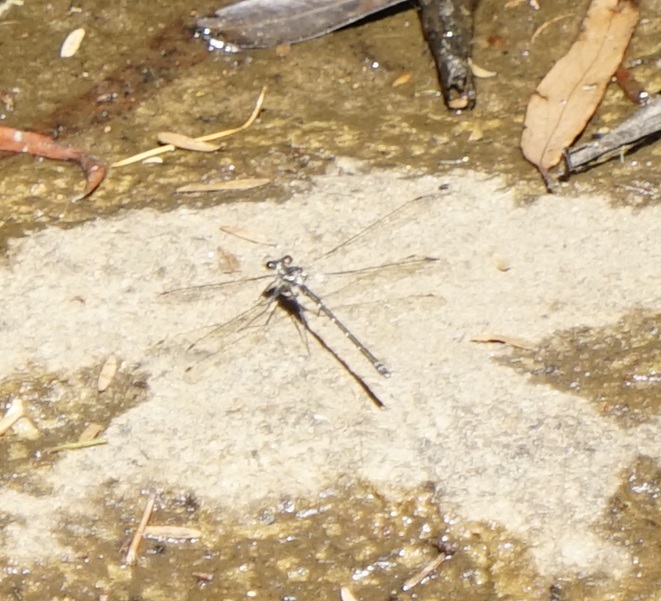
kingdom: Animalia
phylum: Arthropoda
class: Insecta
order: Odonata
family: Argiolestidae
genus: Austroargiolestes
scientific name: Austroargiolestes icteromelas
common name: Common flatwing
